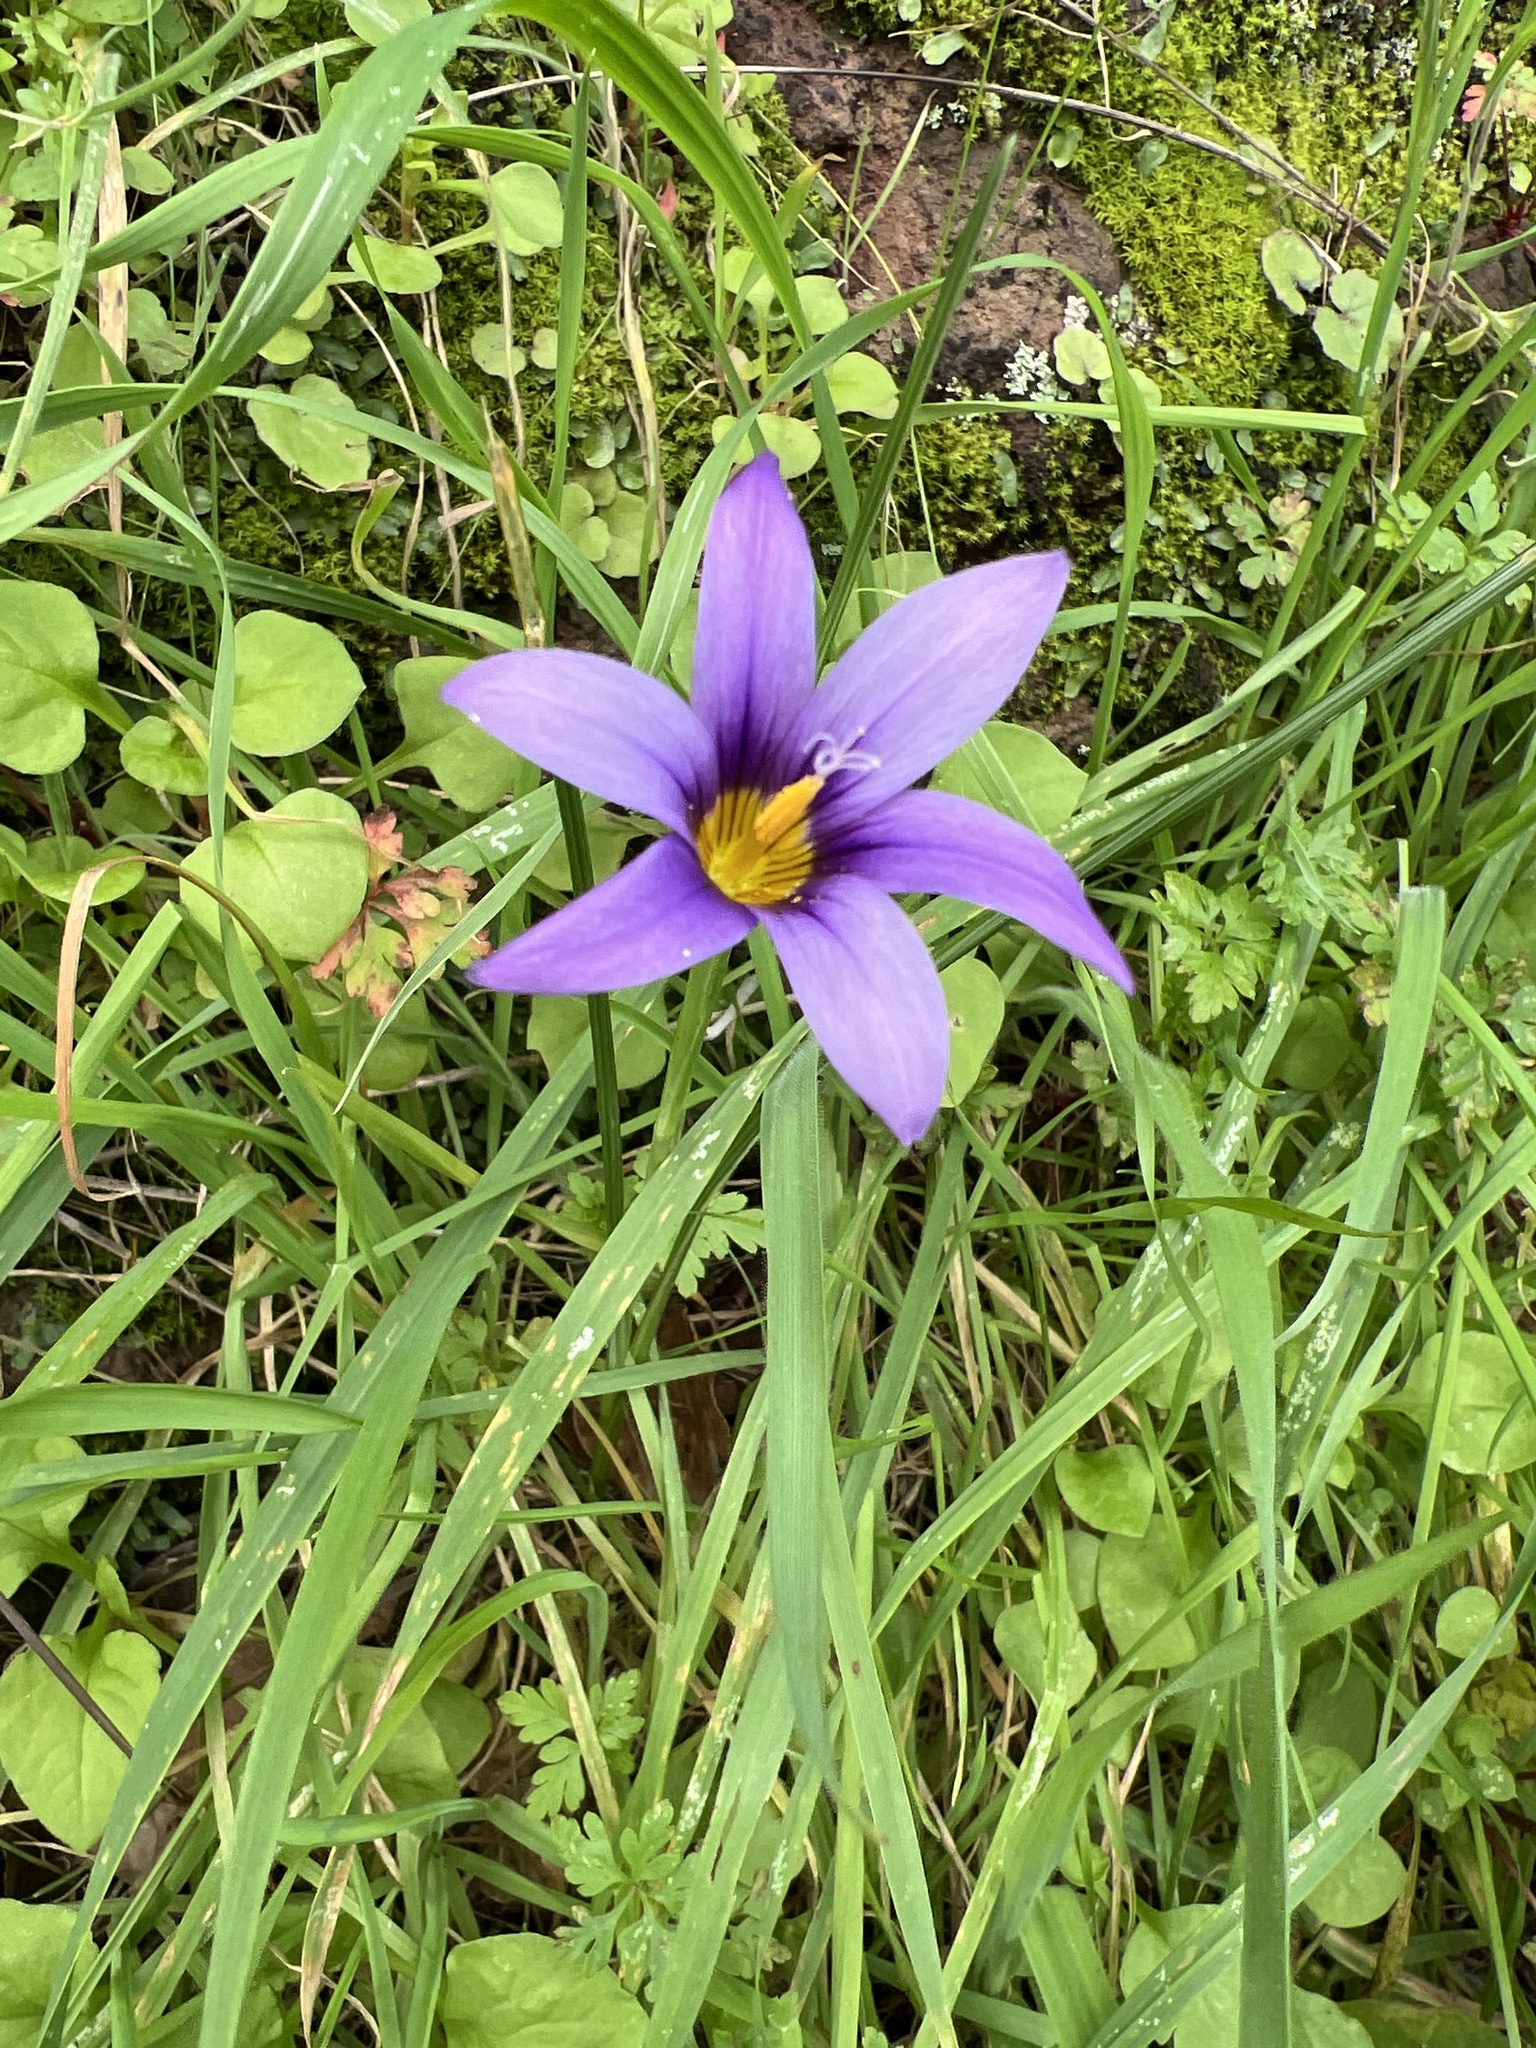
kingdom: Plantae
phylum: Tracheophyta
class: Liliopsida
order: Asparagales
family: Iridaceae
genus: Romulea
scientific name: Romulea columnae
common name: Sand-crocus
